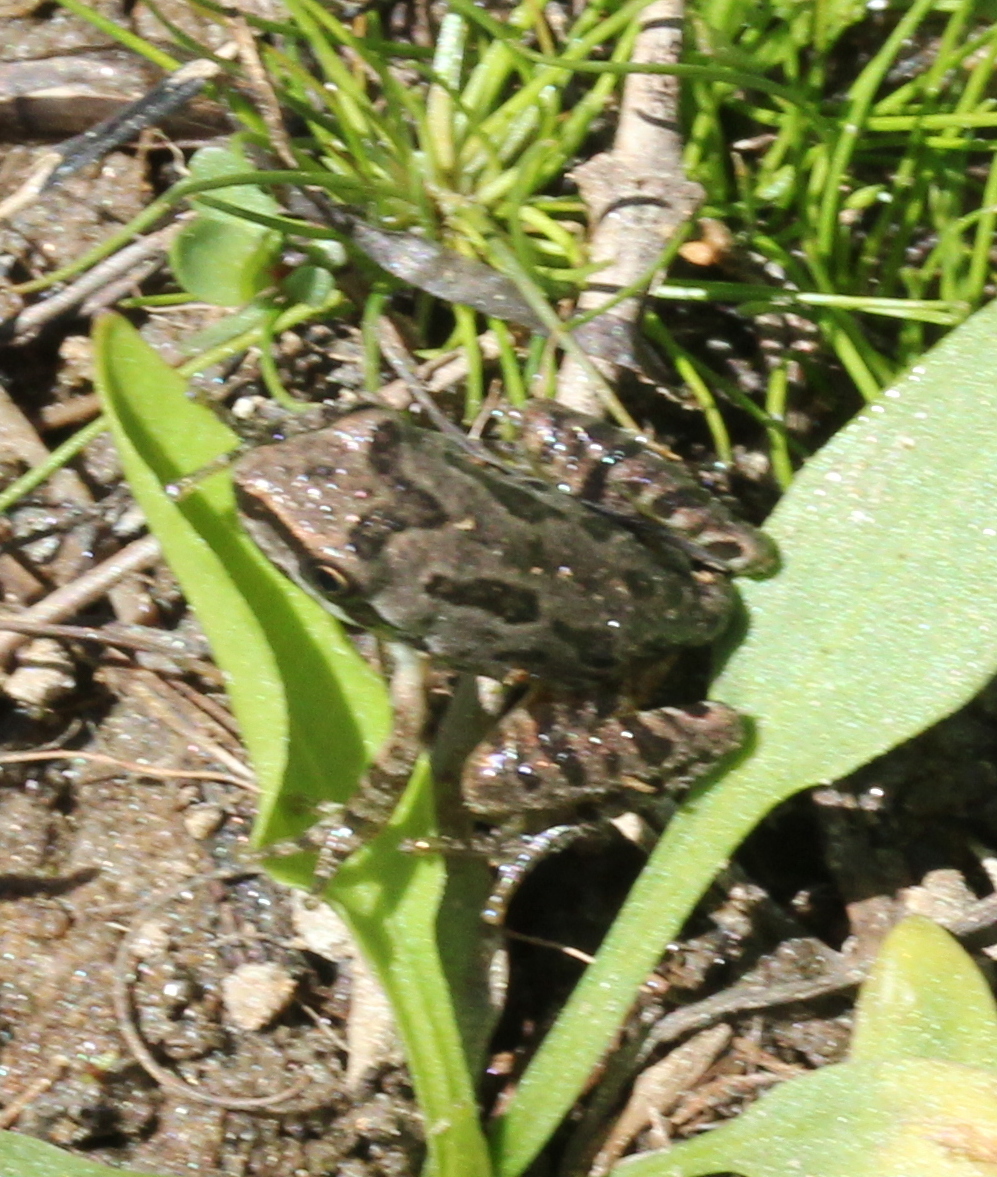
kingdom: Animalia
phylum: Chordata
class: Amphibia
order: Anura
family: Hylidae
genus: Pseudacris
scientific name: Pseudacris regilla
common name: Pacific chorus frog
